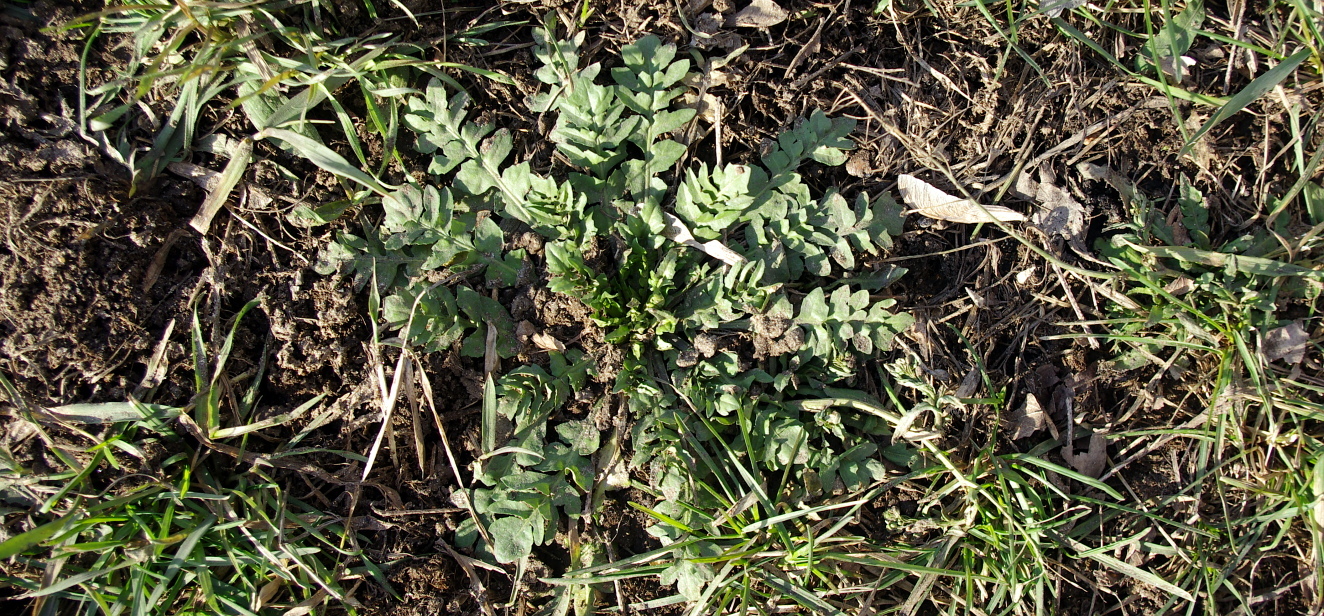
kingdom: Plantae
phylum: Tracheophyta
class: Magnoliopsida
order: Brassicales
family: Brassicaceae
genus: Capsella
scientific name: Capsella bursa-pastoris
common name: Shepherd's purse
